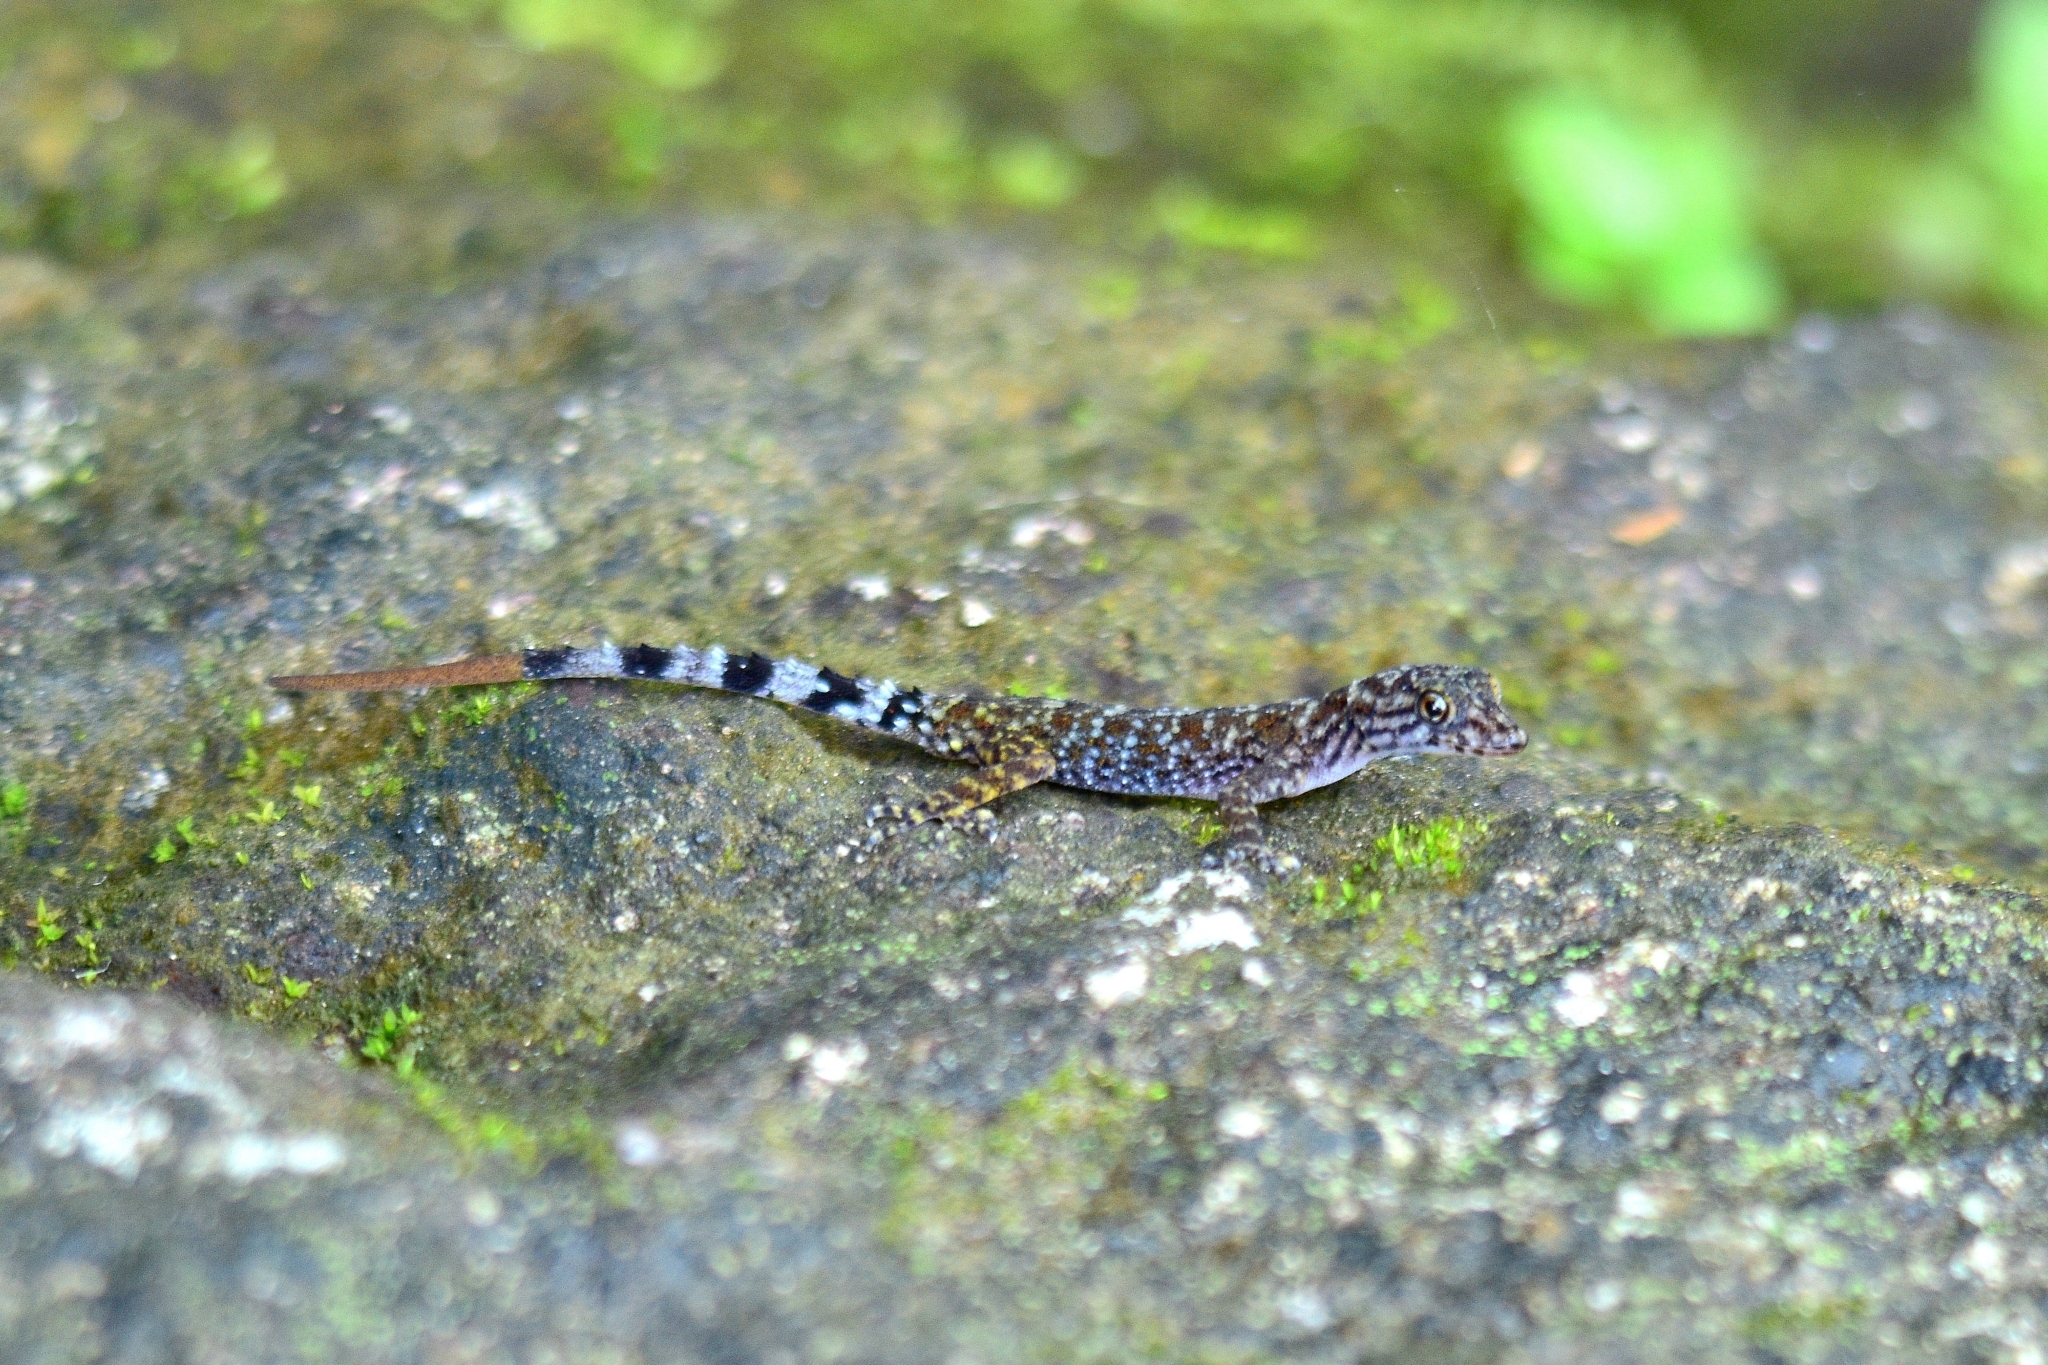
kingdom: Animalia
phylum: Chordata
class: Squamata
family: Gekkonidae
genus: Cnemaspis
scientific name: Cnemaspis gracilis
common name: Graceful day gecko
